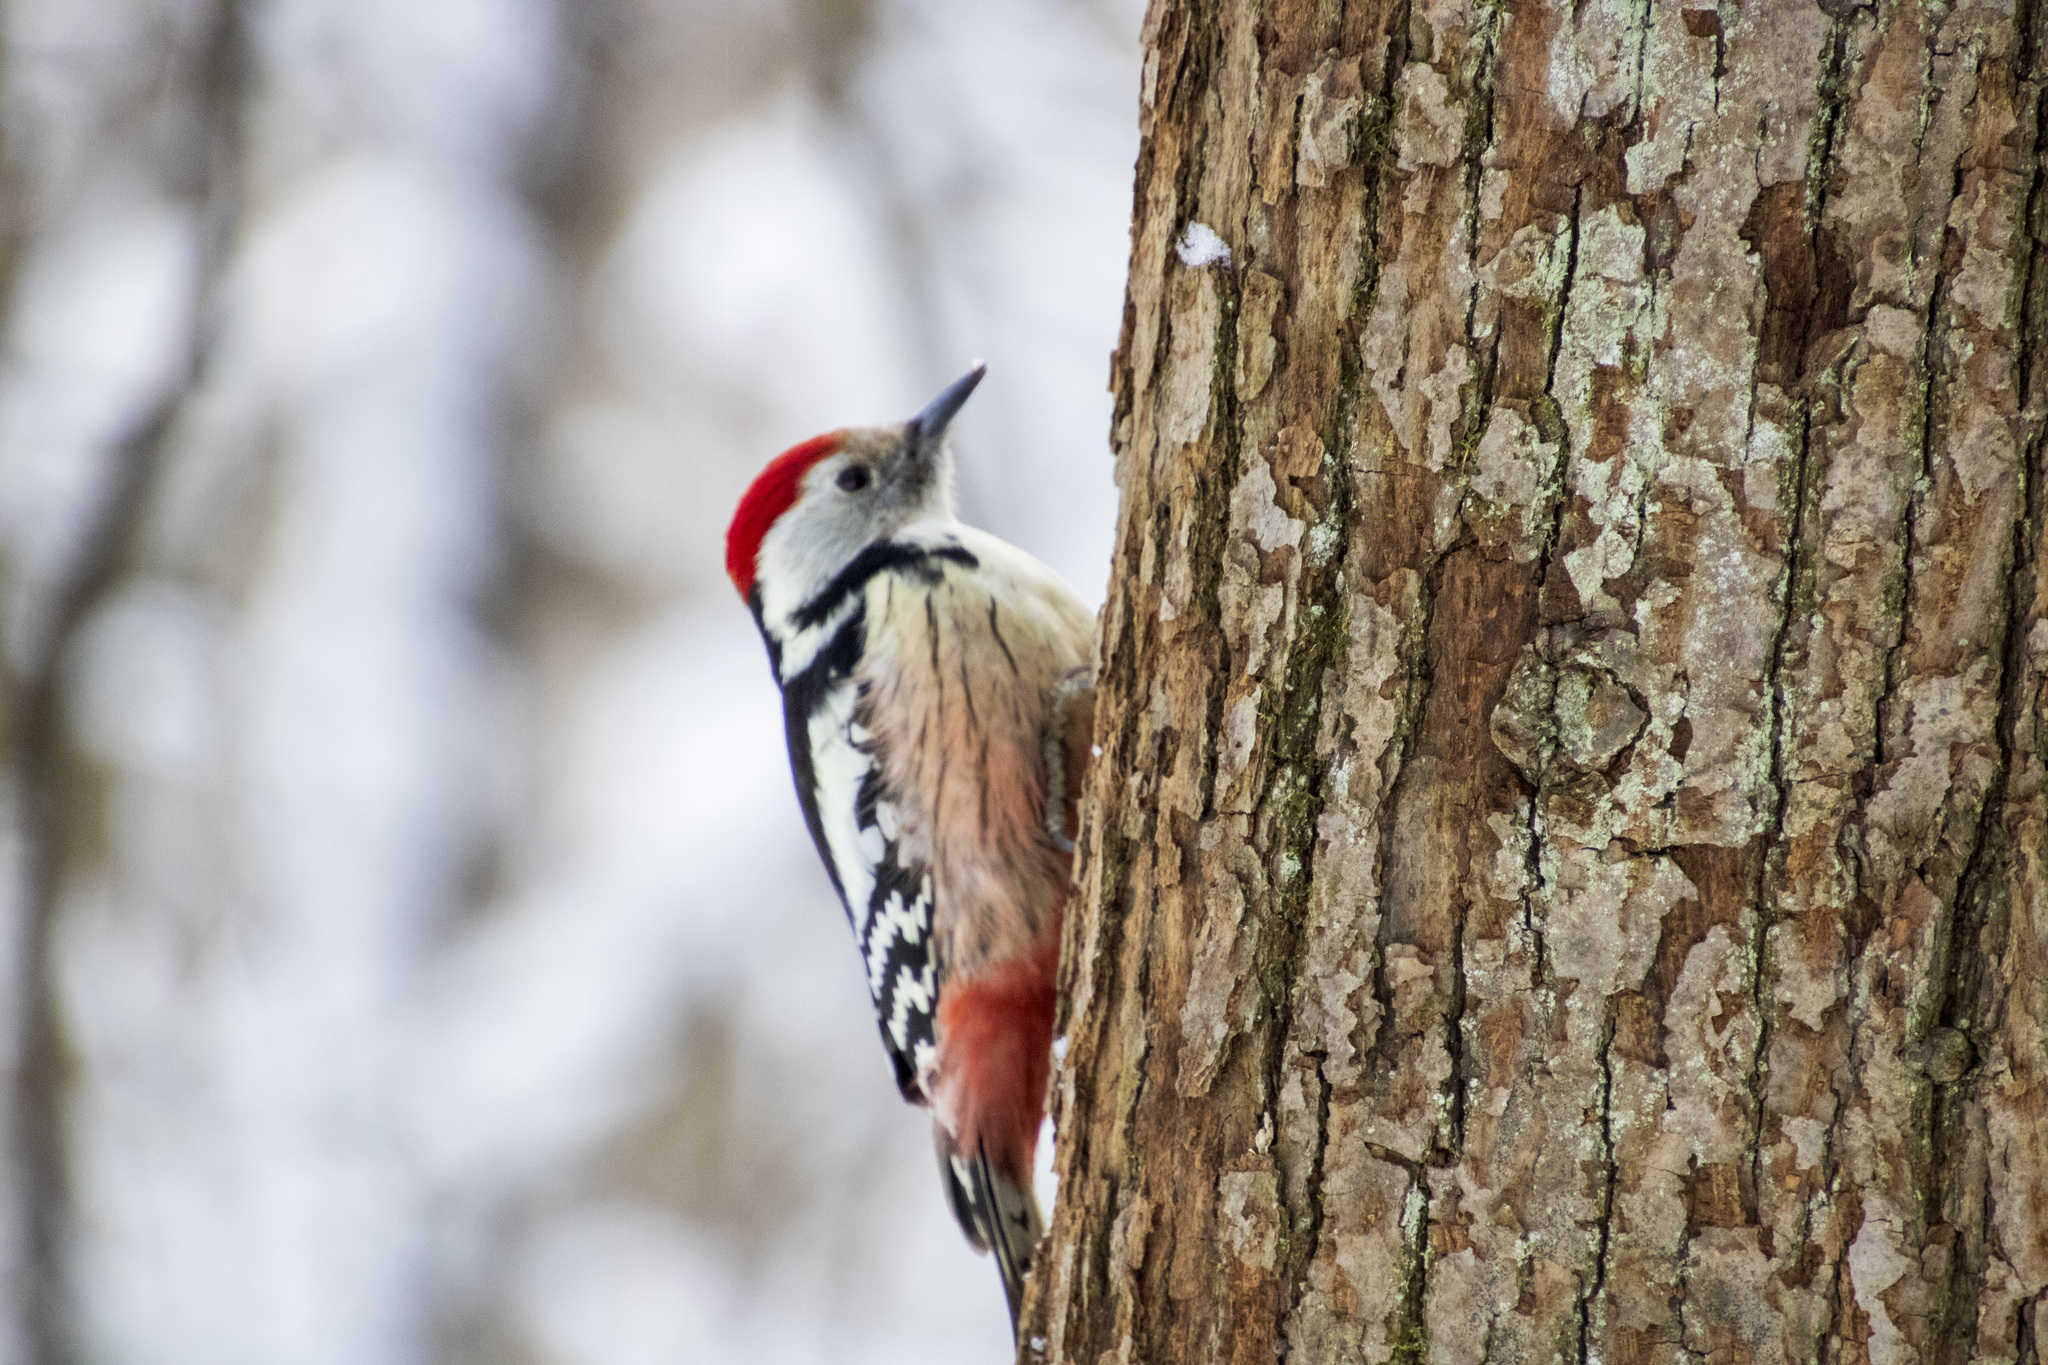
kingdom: Animalia
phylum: Chordata
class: Aves
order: Piciformes
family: Picidae
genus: Dendrocoptes
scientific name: Dendrocoptes medius
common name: Middle spotted woodpecker
